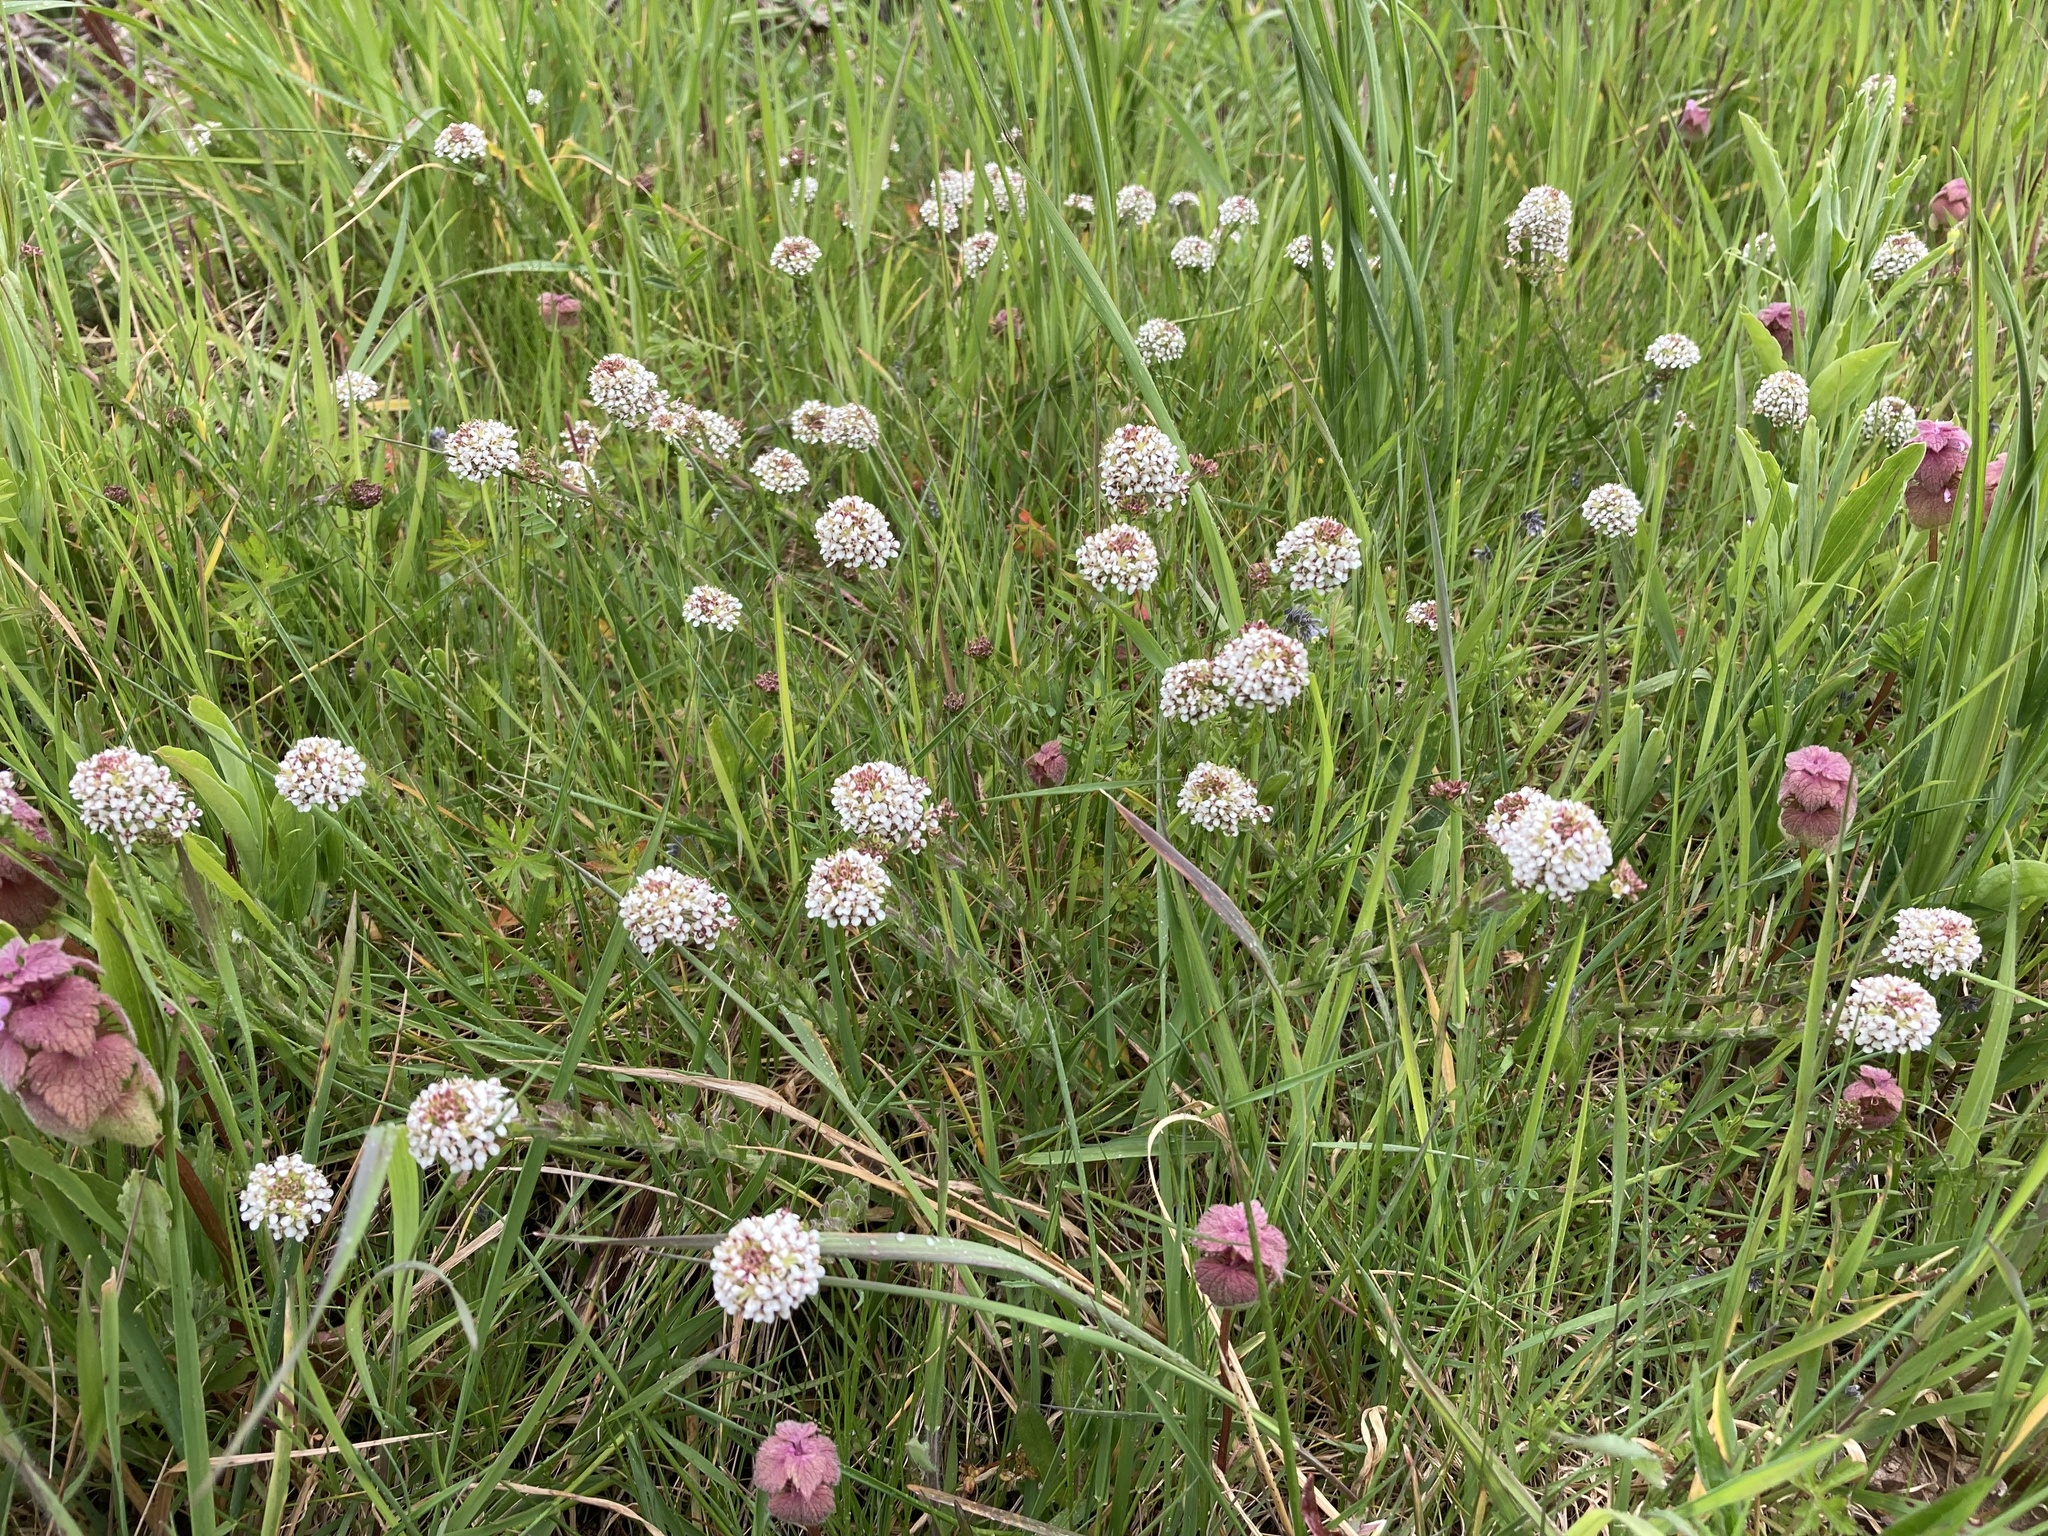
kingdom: Plantae
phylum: Tracheophyta
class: Magnoliopsida
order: Brassicales
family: Brassicaceae
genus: Lepidium
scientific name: Lepidium heterophyllum
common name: Smith's pepperwort
